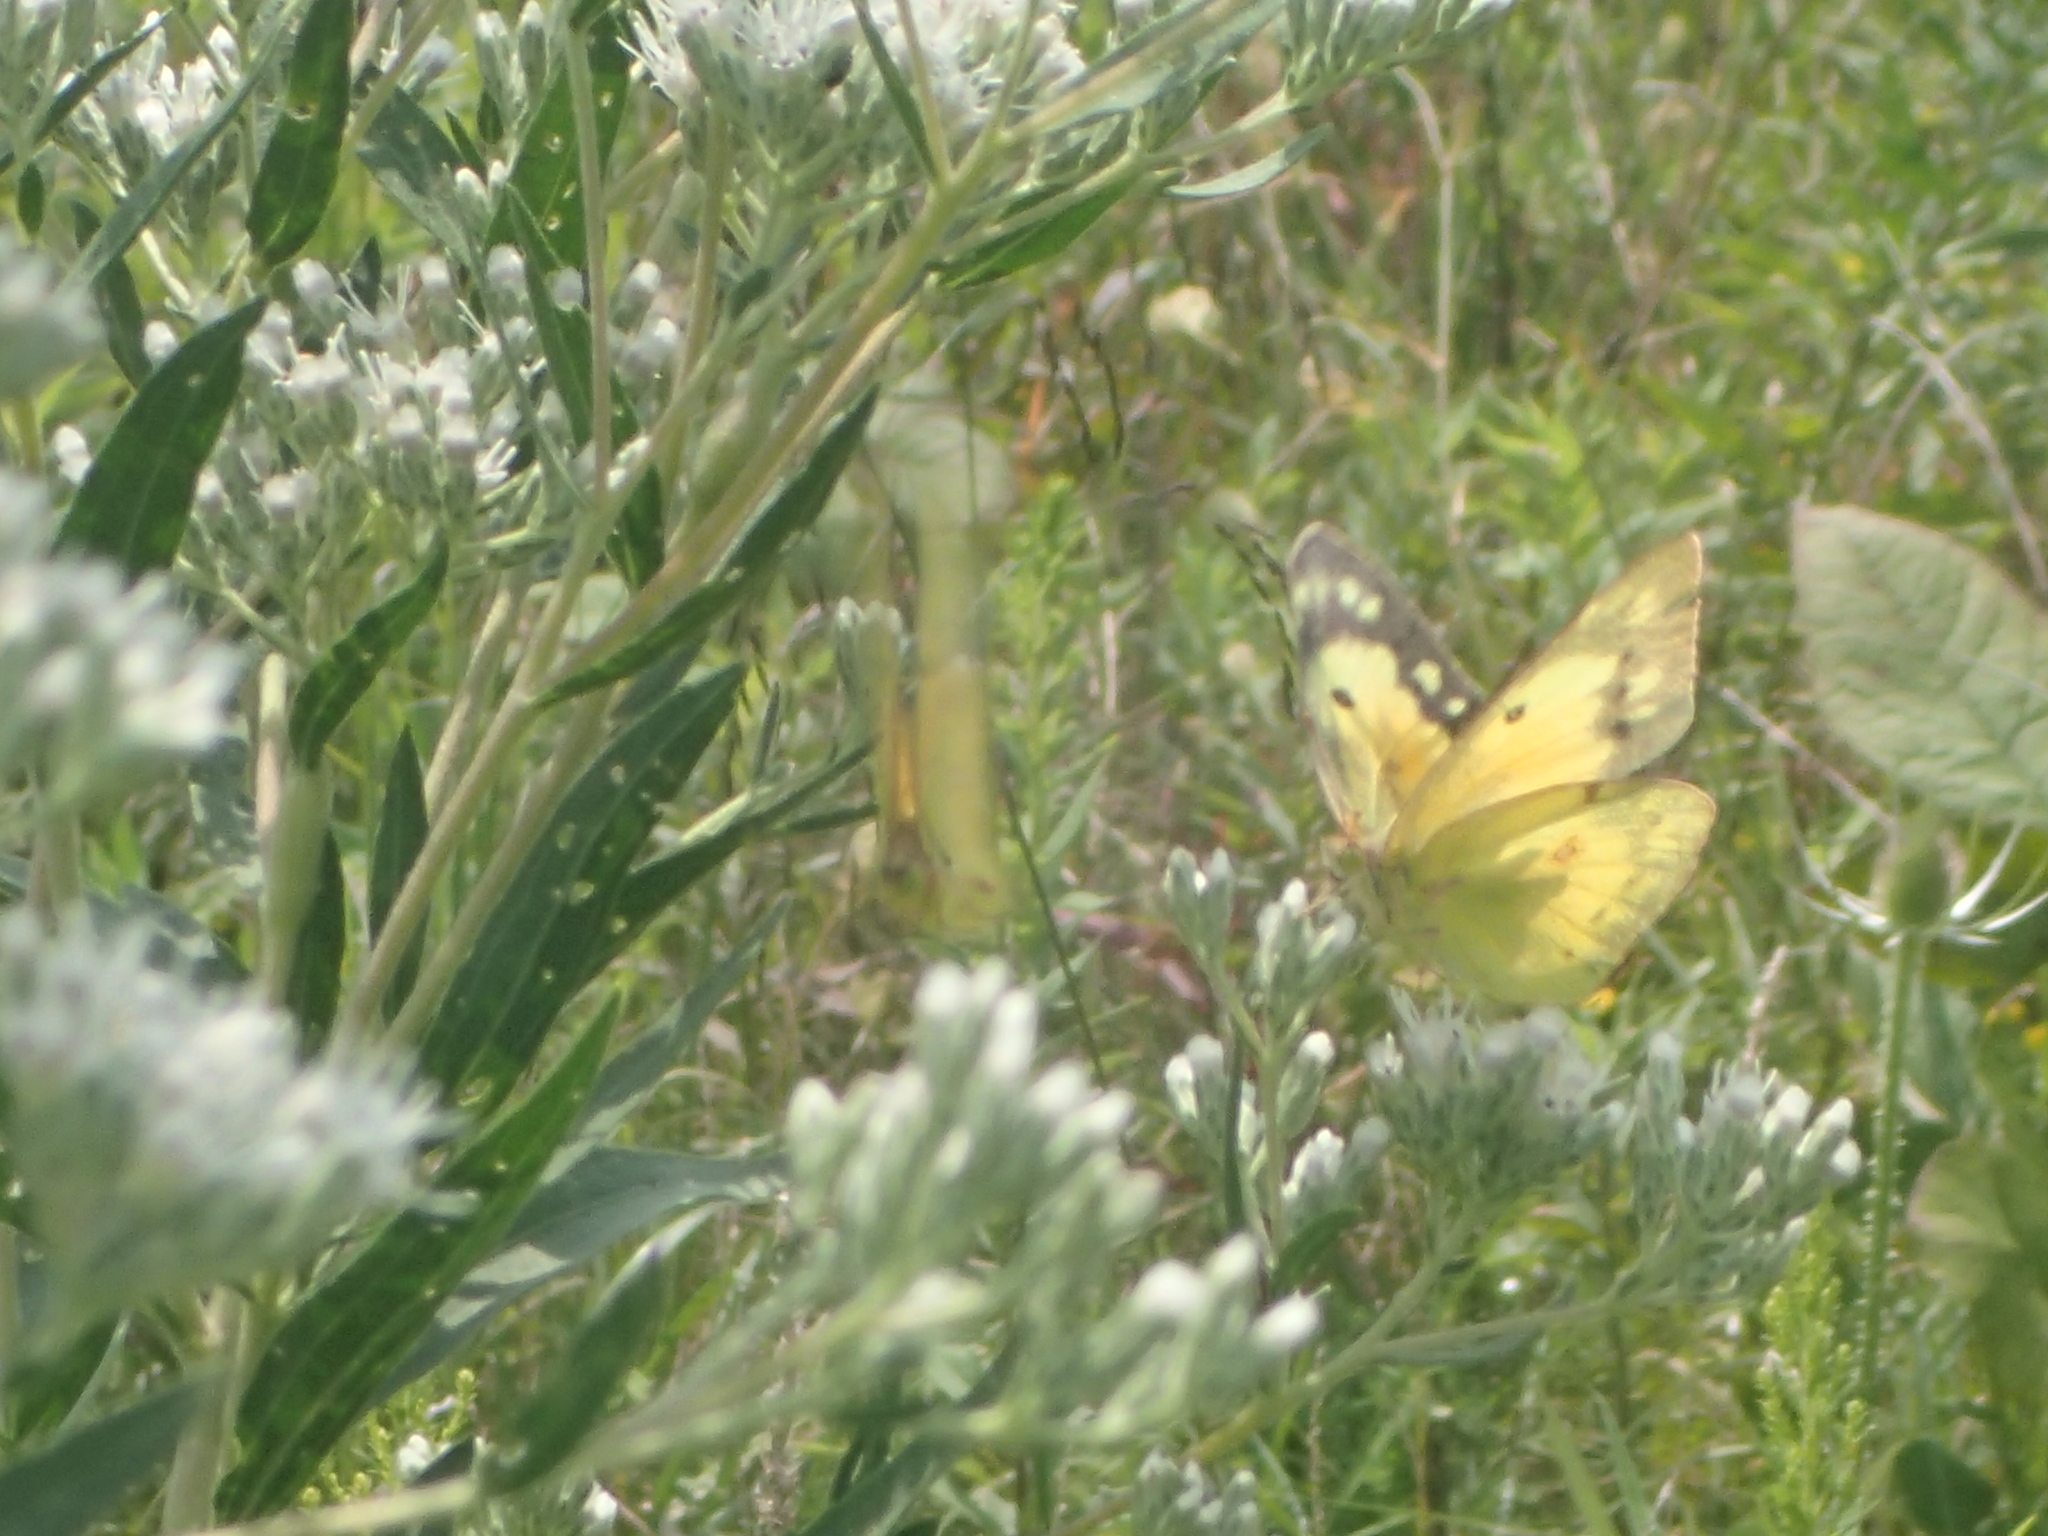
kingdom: Animalia
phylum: Arthropoda
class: Insecta
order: Lepidoptera
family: Pieridae
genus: Colias
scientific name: Colias eurytheme
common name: Alfalfa butterfly
